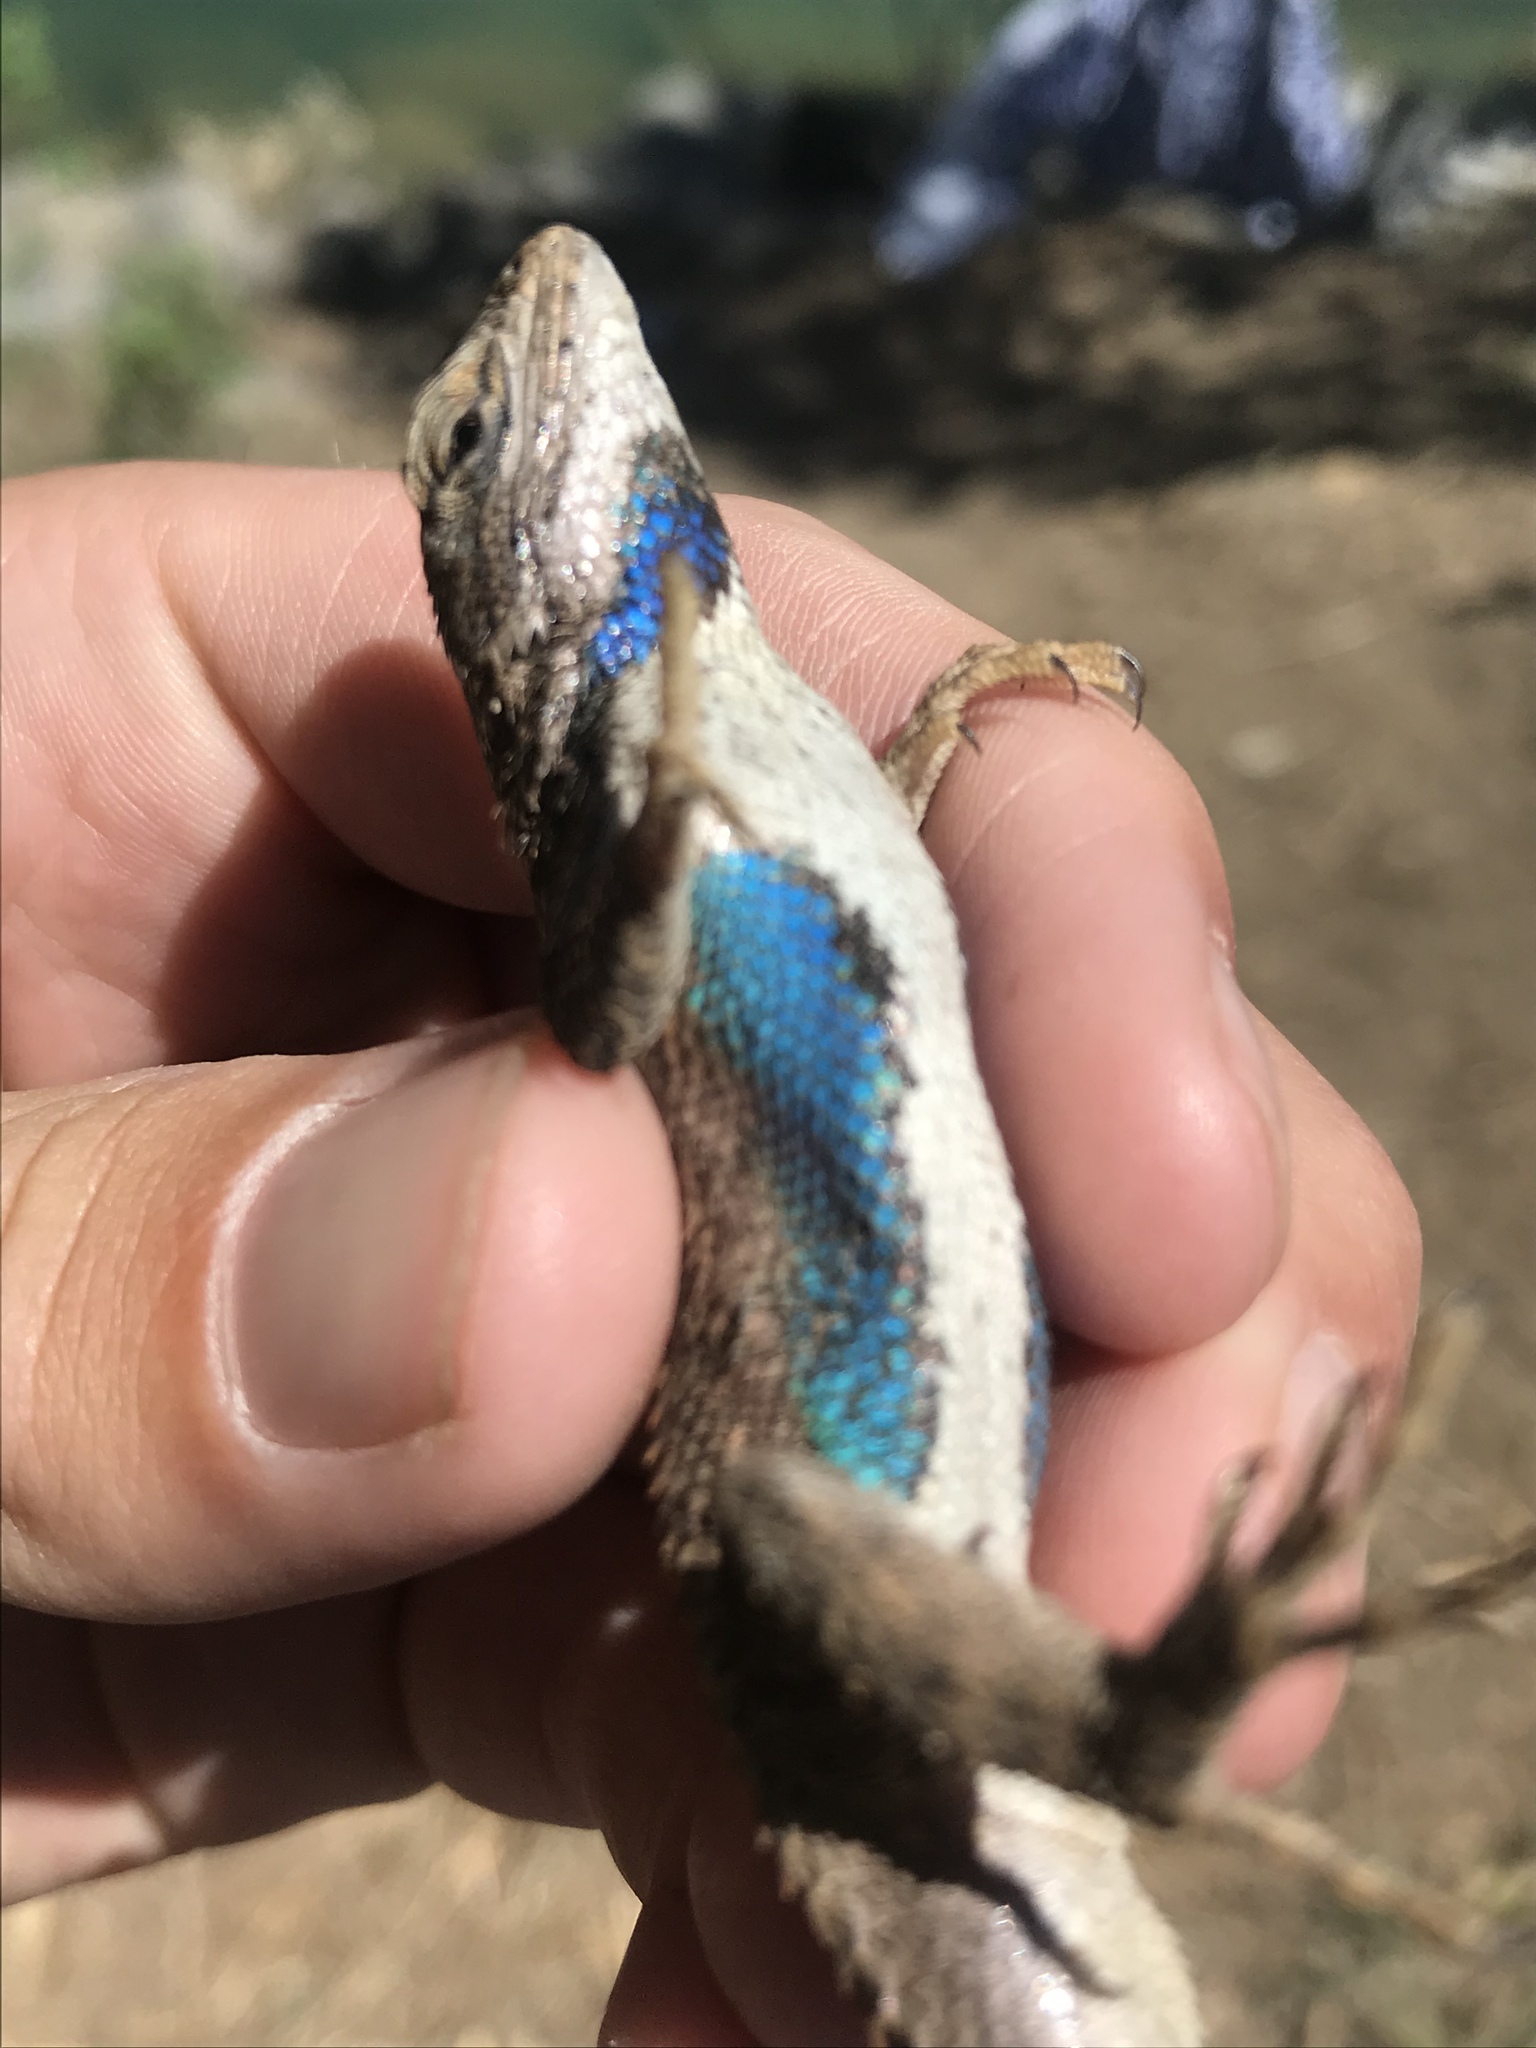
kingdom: Animalia
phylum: Chordata
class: Squamata
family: Phrynosomatidae
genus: Sceloporus
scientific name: Sceloporus cowlesi
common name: White sands prairie lizard
